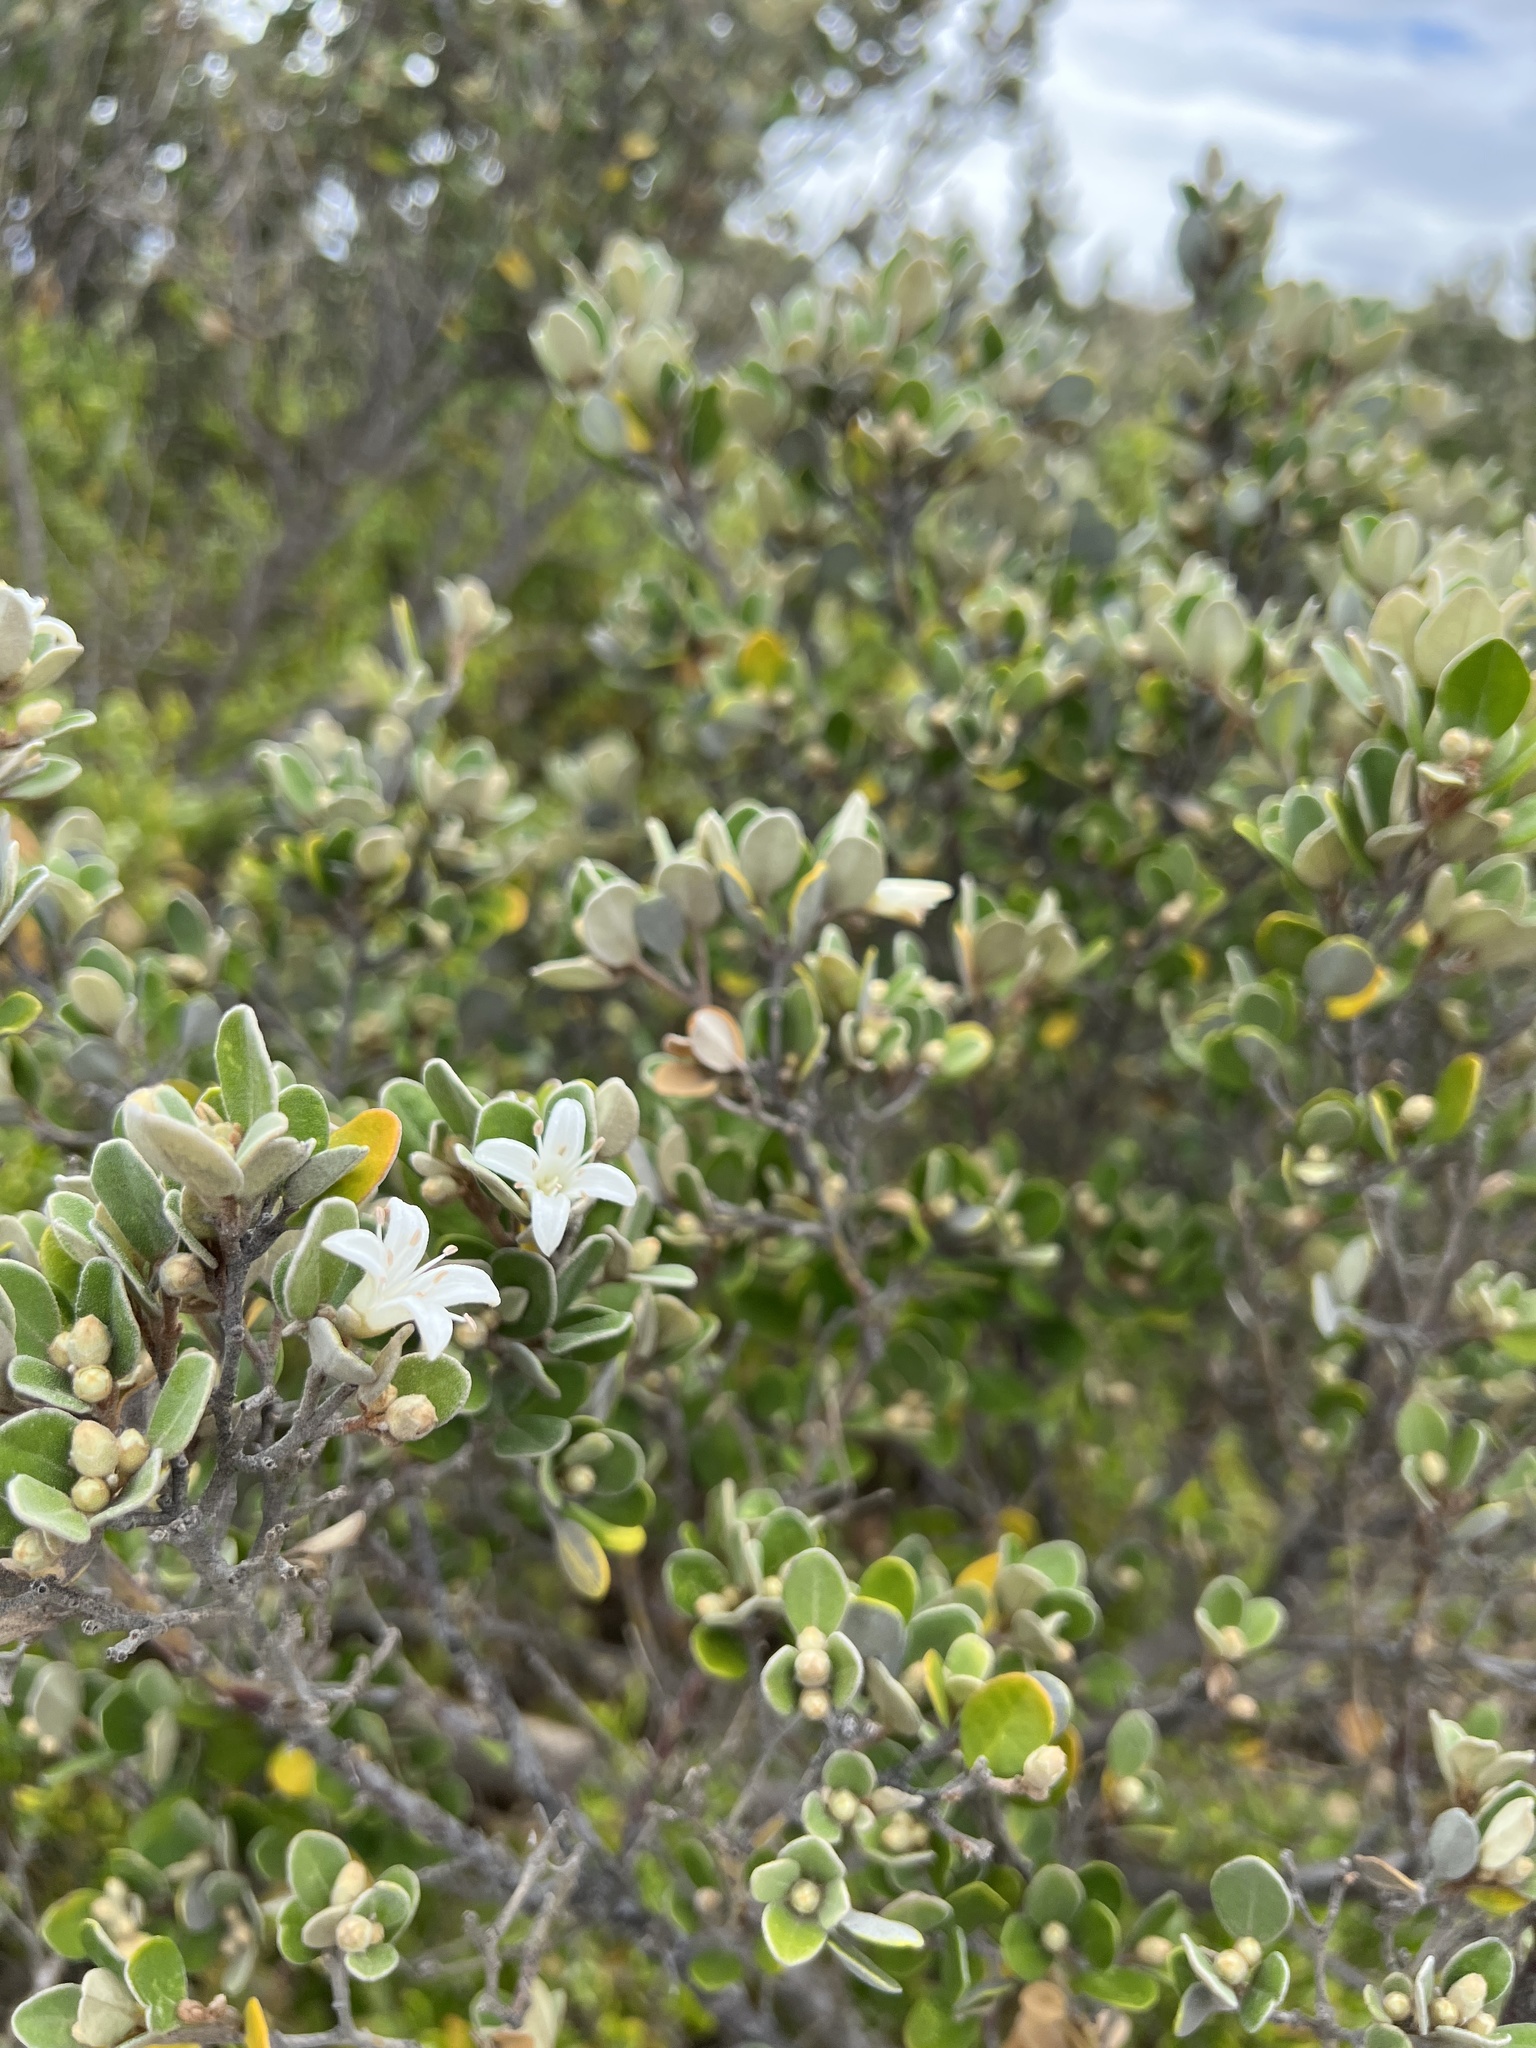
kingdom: Plantae
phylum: Tracheophyta
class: Magnoliopsida
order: Sapindales
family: Rutaceae
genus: Correa
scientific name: Correa alba
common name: White correa
